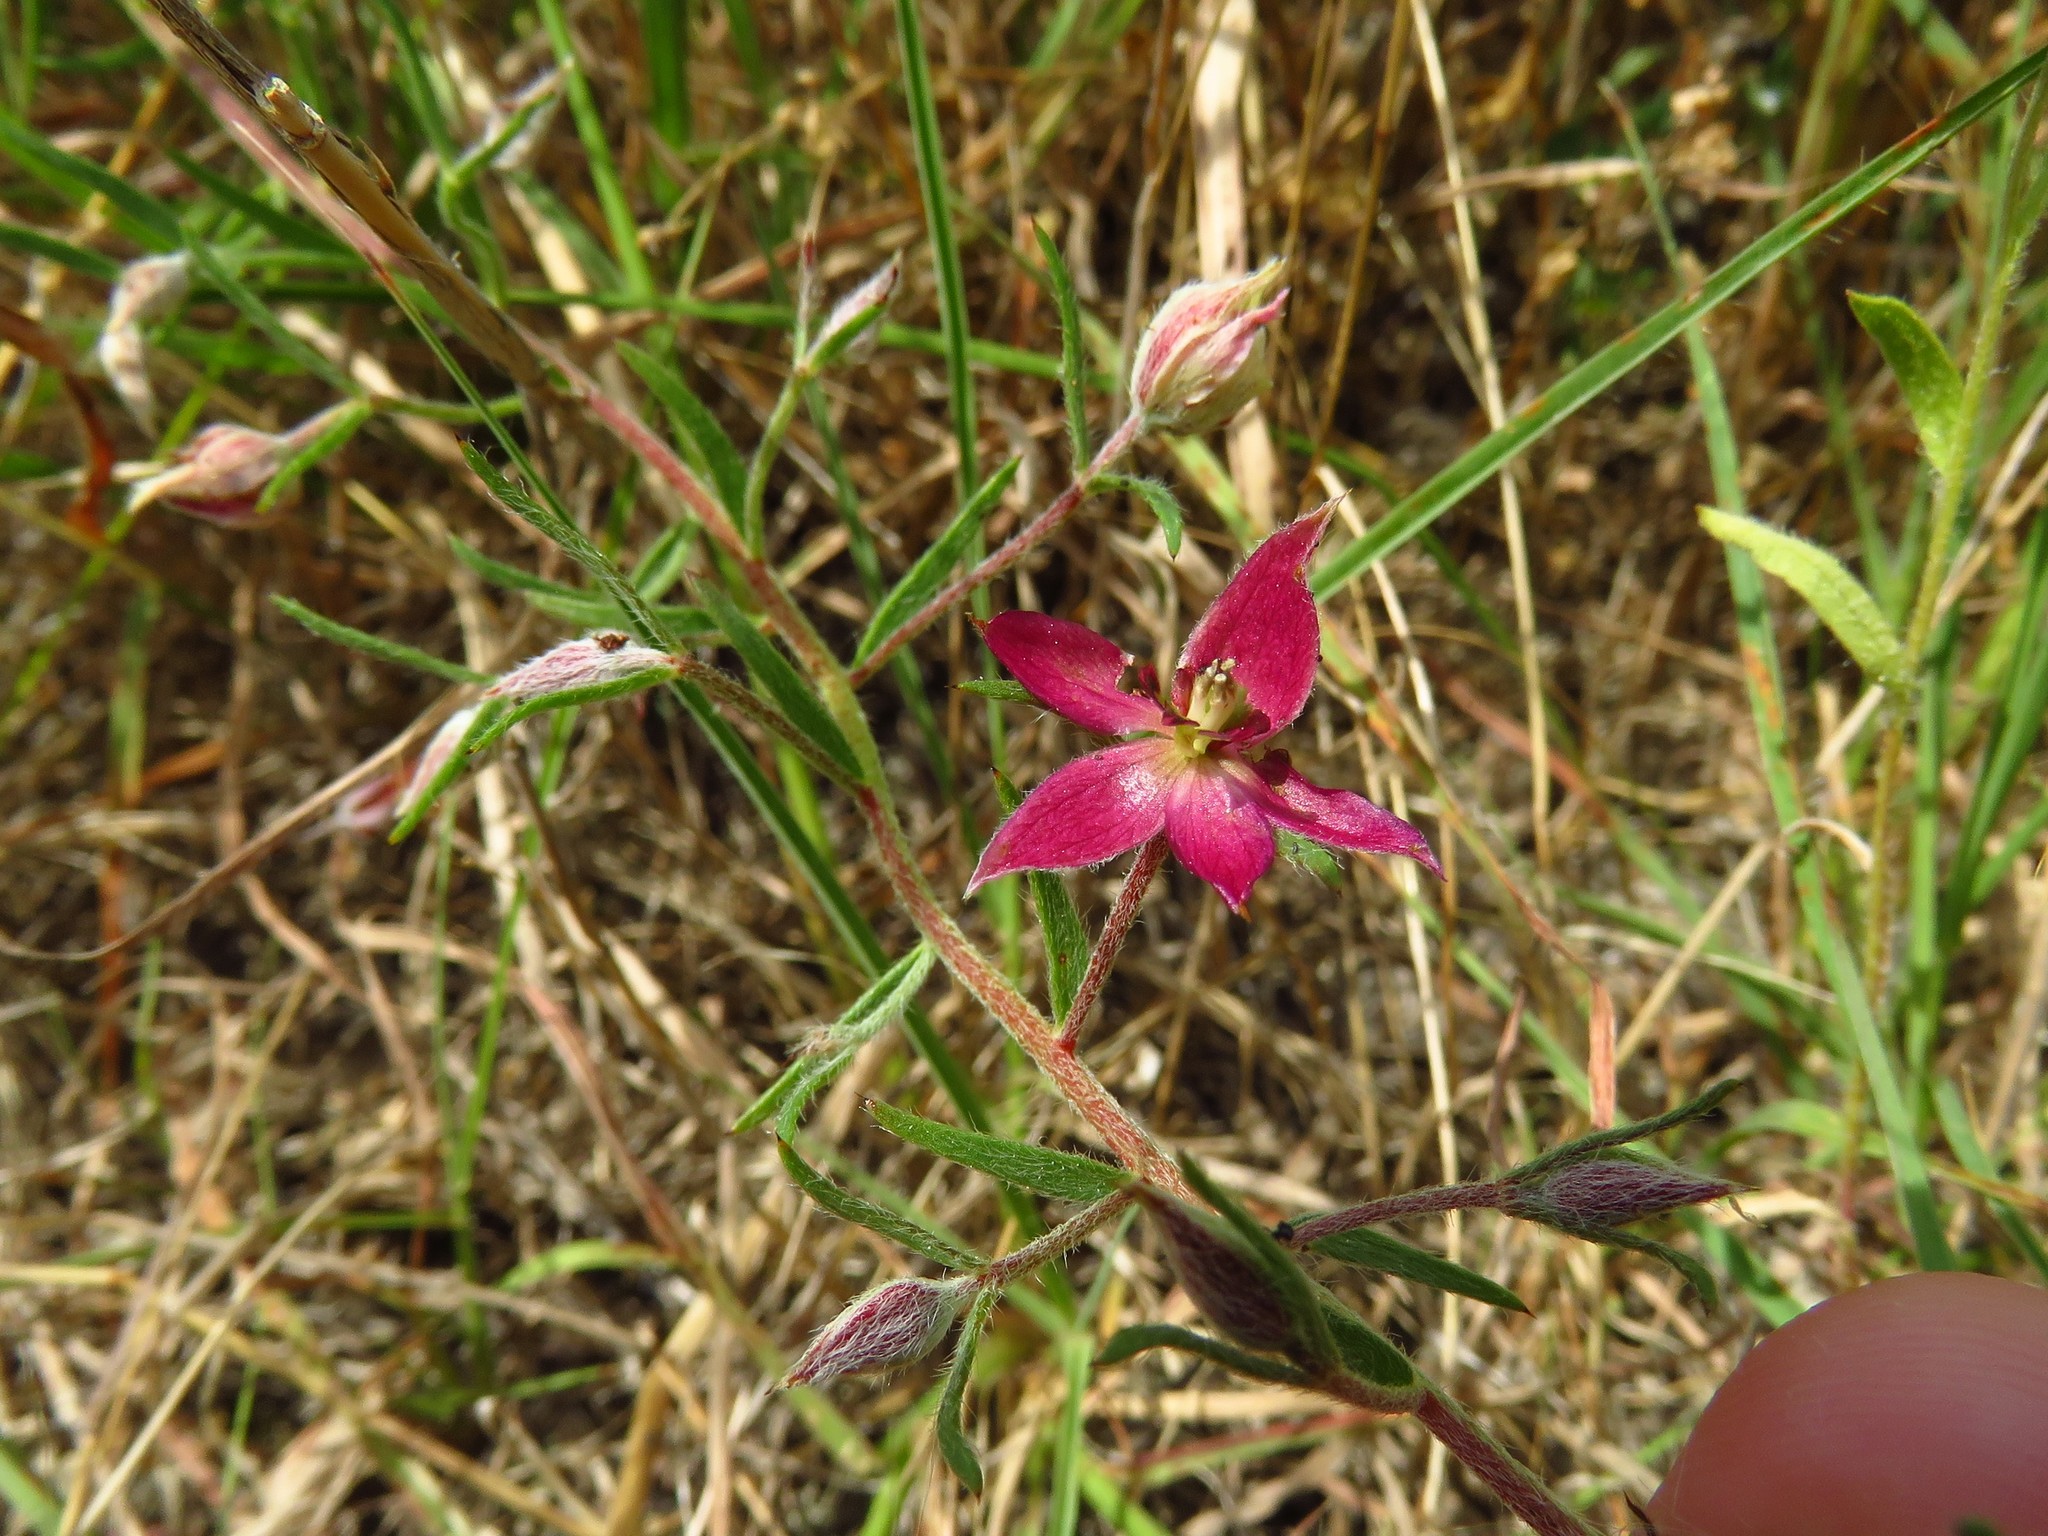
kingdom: Plantae
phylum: Tracheophyta
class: Magnoliopsida
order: Zygophyllales
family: Krameriaceae
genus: Krameria
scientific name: Krameria lanceolata
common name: Ratany
